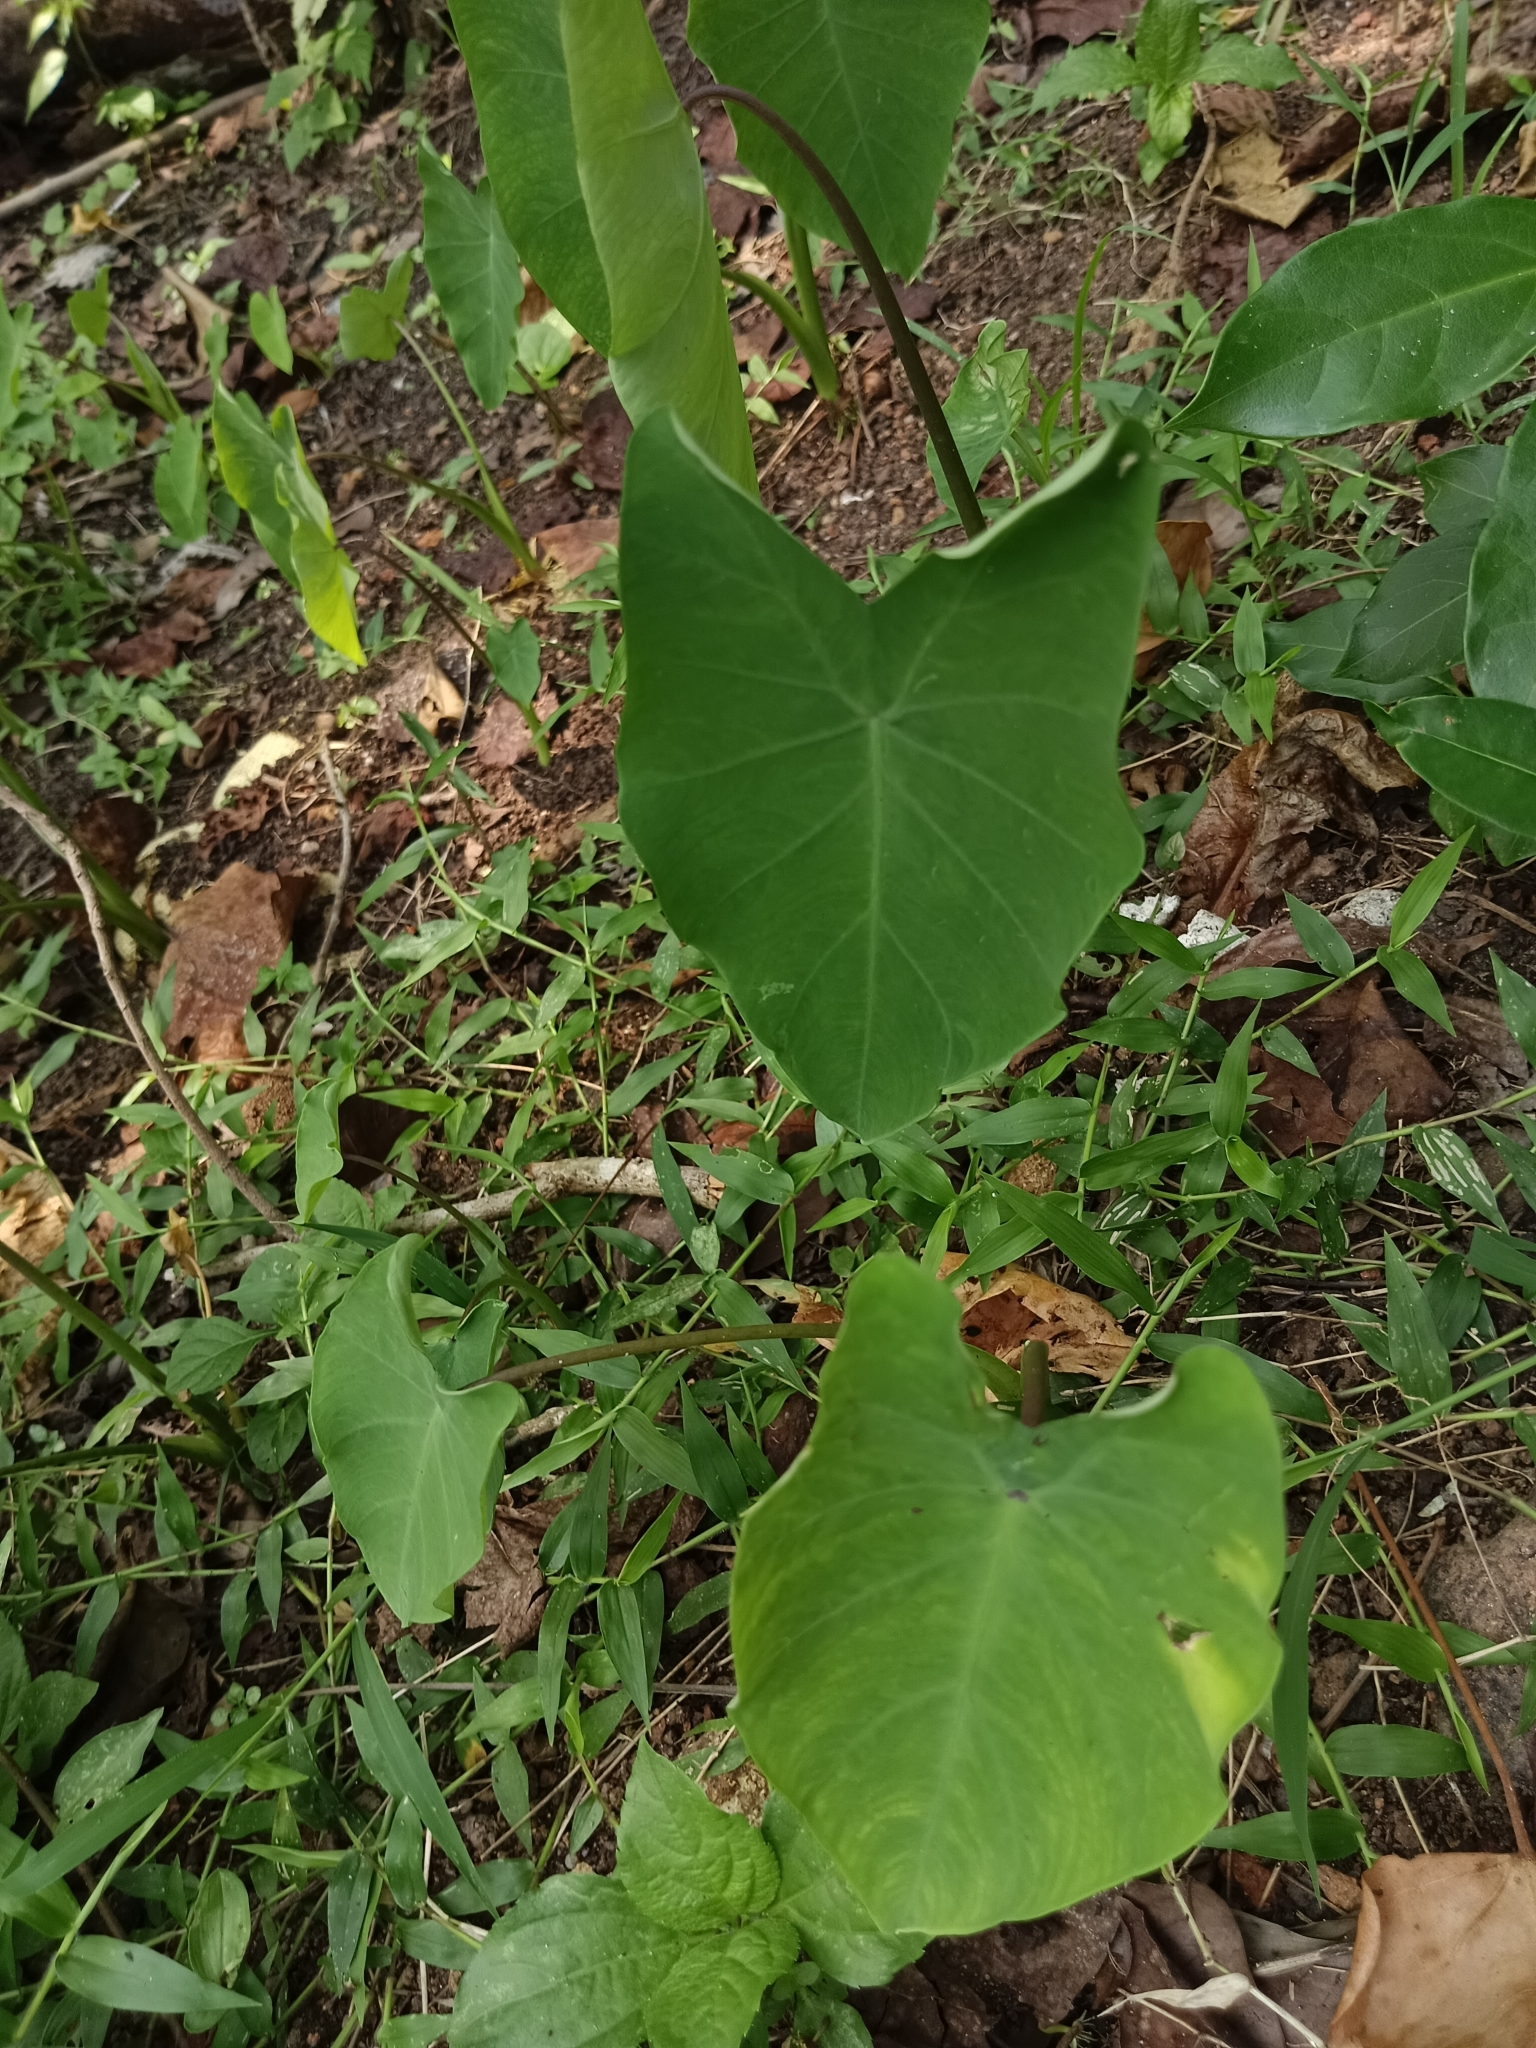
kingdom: Plantae
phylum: Tracheophyta
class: Liliopsida
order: Alismatales
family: Araceae
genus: Colocasia
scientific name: Colocasia esculenta
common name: Taro
